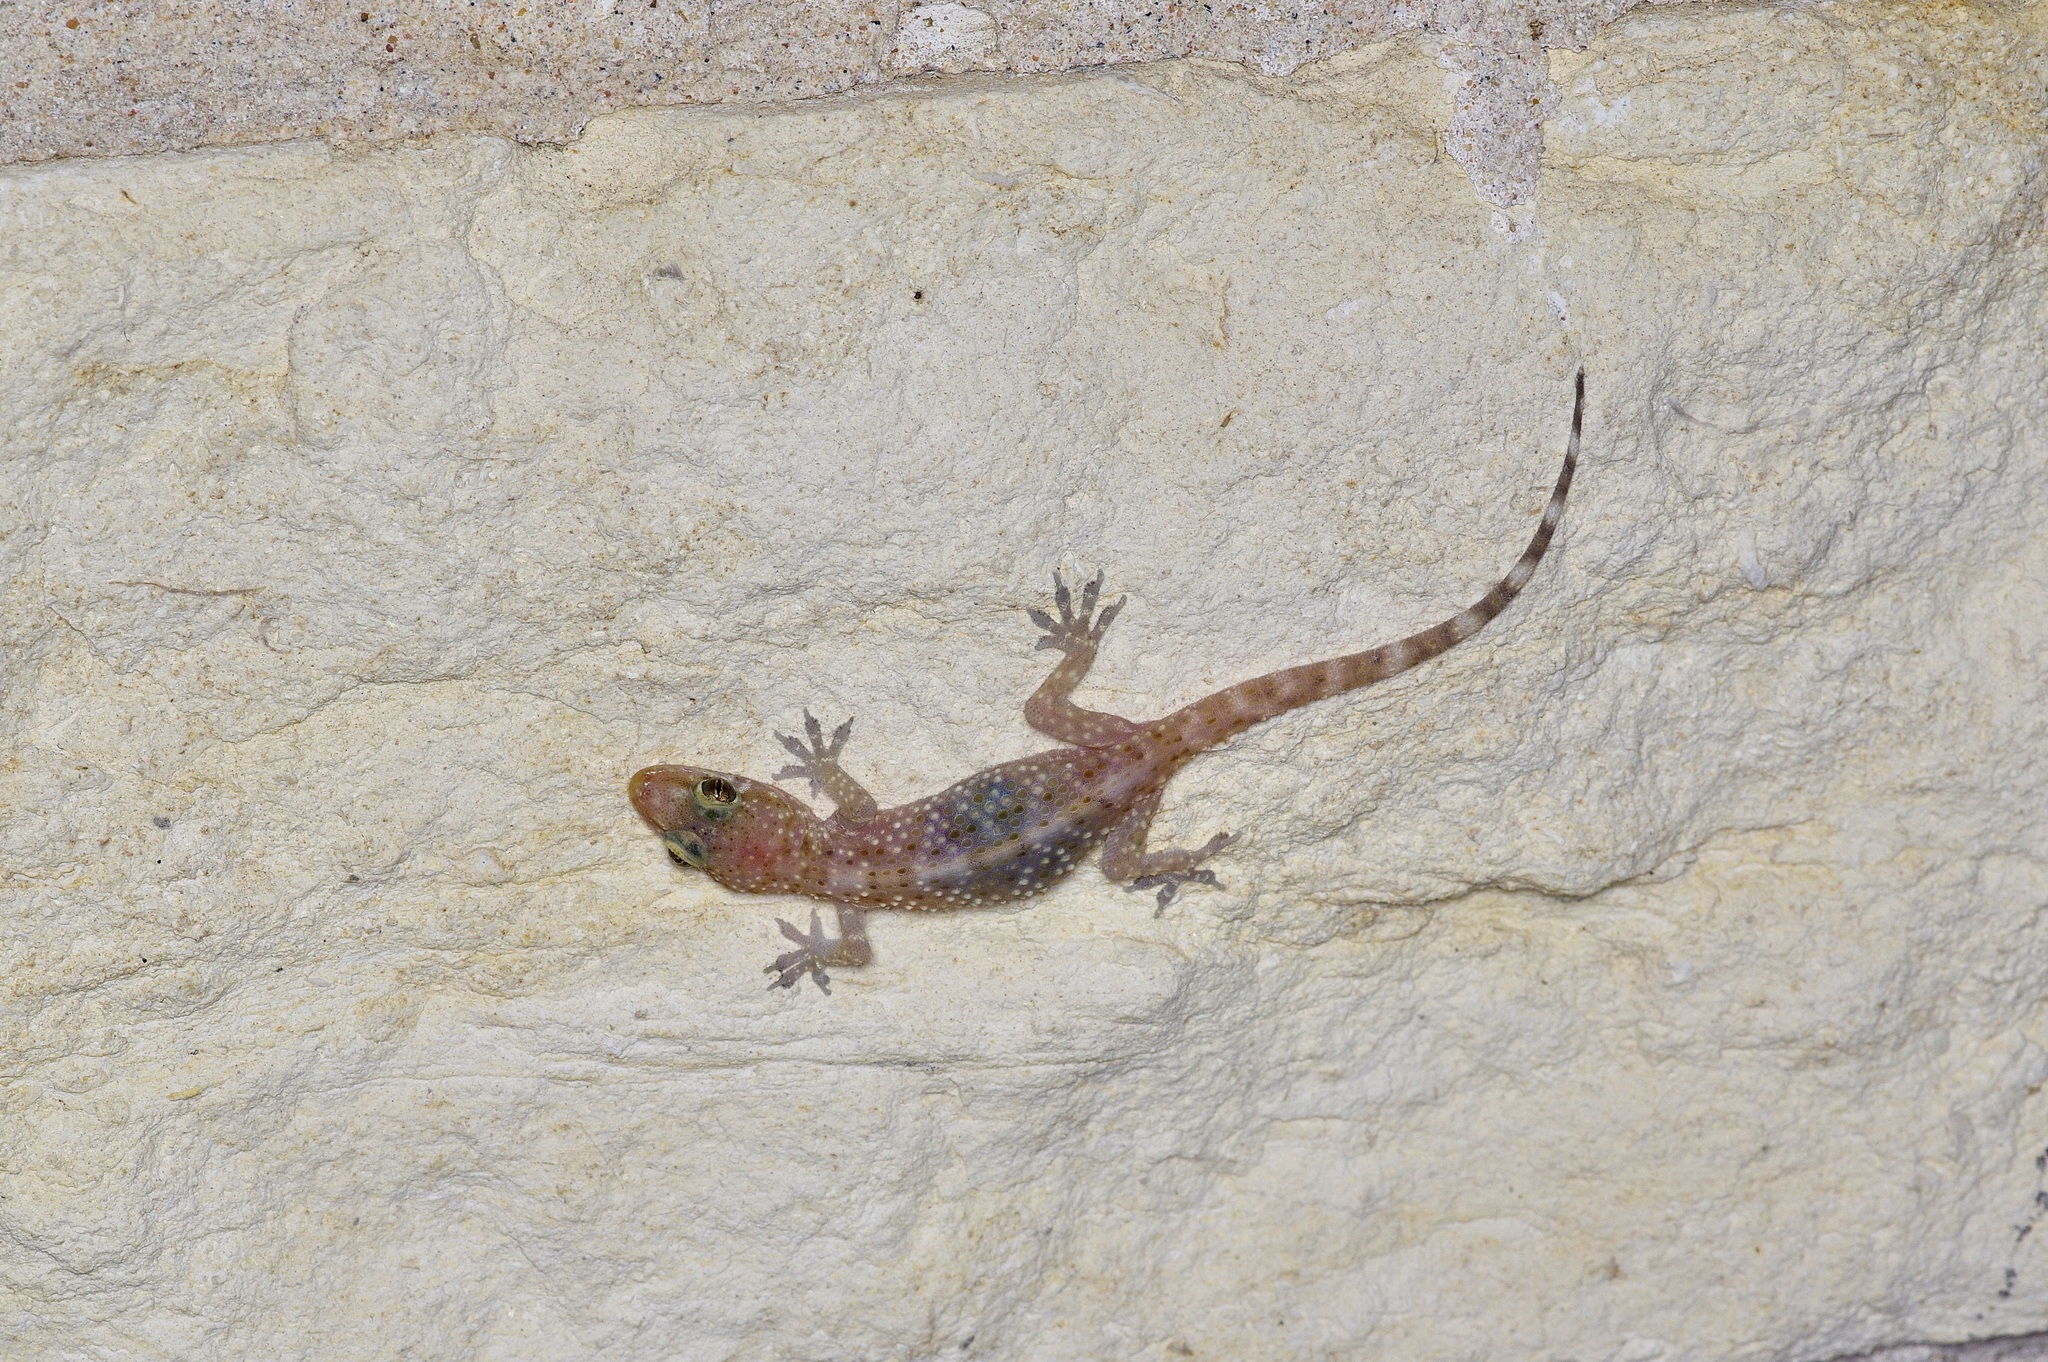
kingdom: Animalia
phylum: Chordata
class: Squamata
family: Gekkonidae
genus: Hemidactylus
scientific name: Hemidactylus turcicus
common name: Turkish gecko
